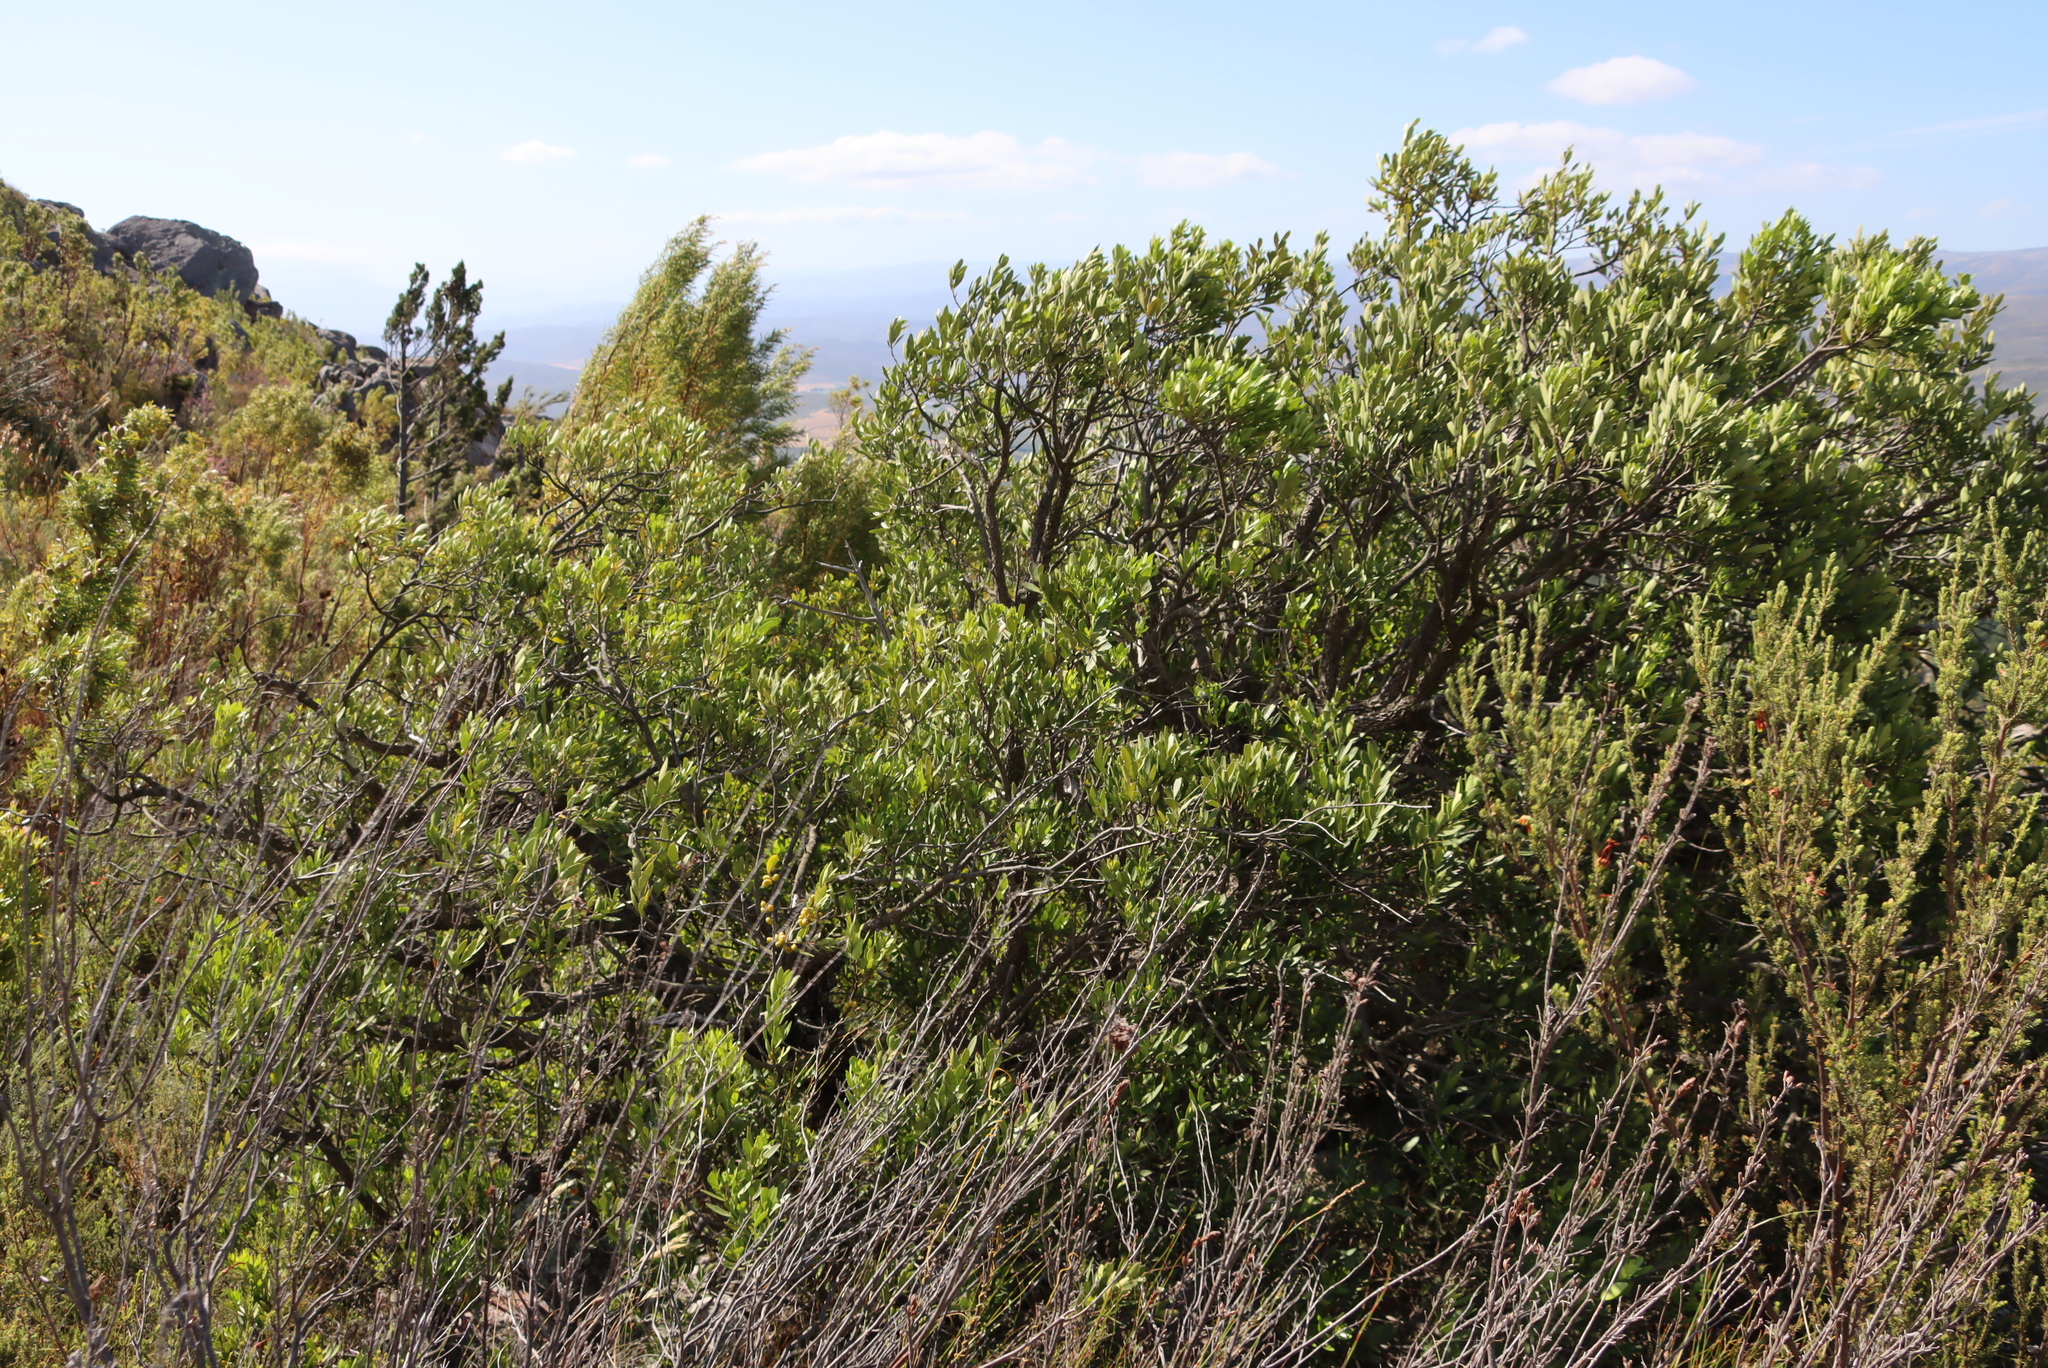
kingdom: Plantae
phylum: Tracheophyta
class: Magnoliopsida
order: Sapindales
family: Anacardiaceae
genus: Searsia
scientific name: Searsia lucida
